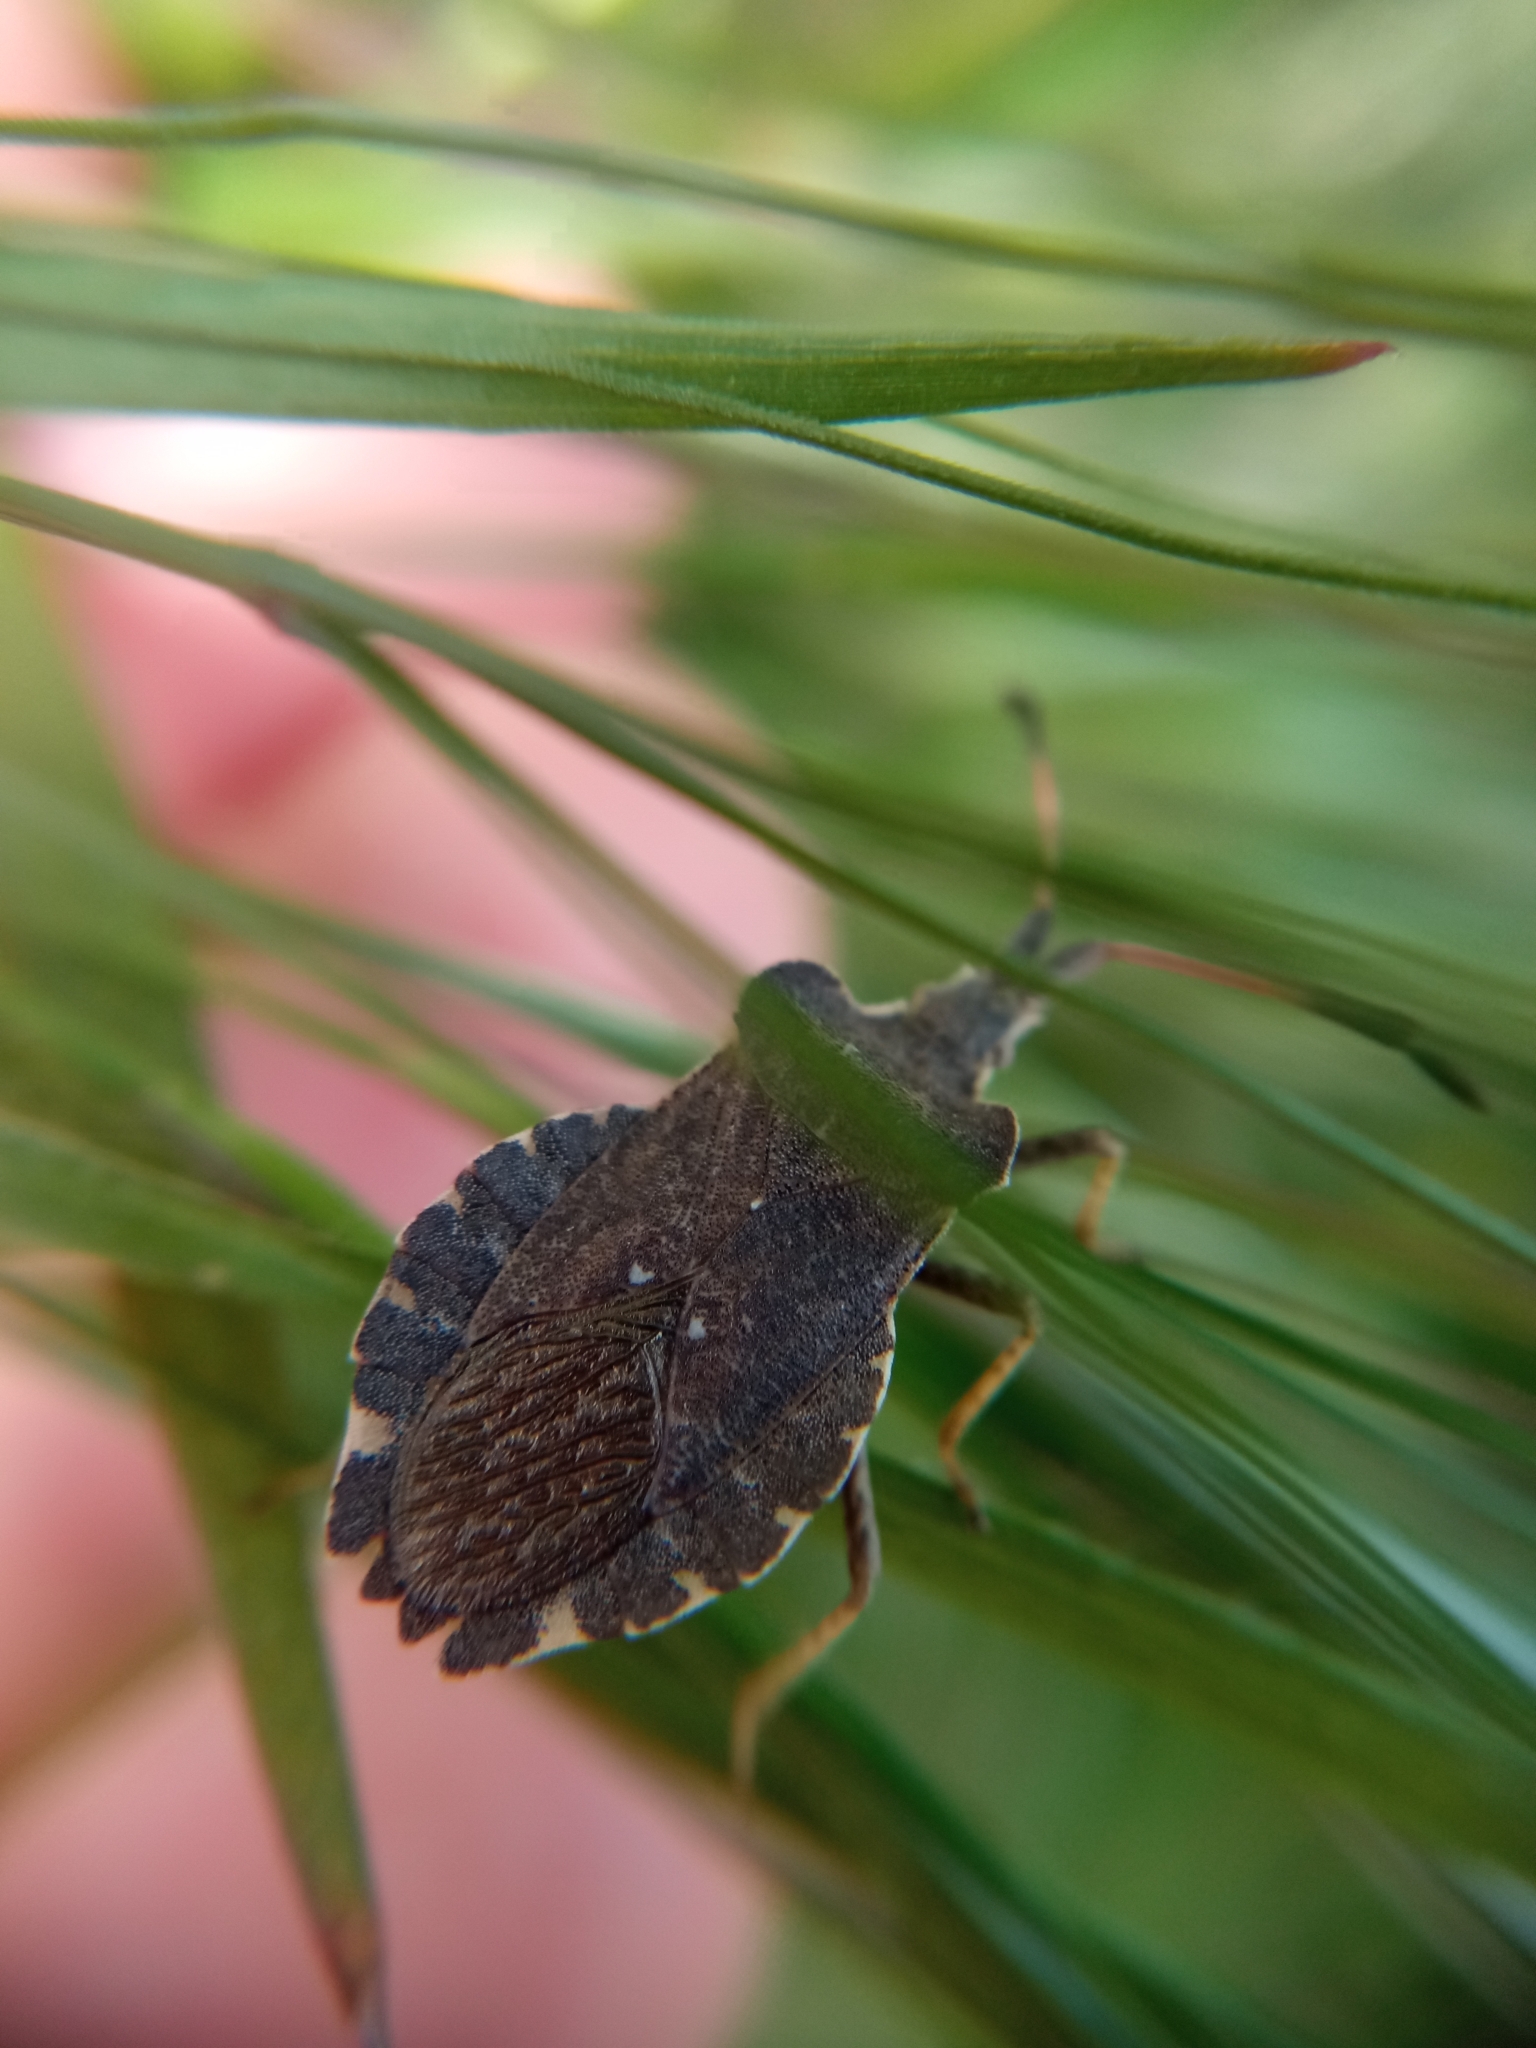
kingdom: Animalia
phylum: Arthropoda
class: Insecta
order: Hemiptera
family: Coreidae
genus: Enoplops
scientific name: Enoplops scapha
